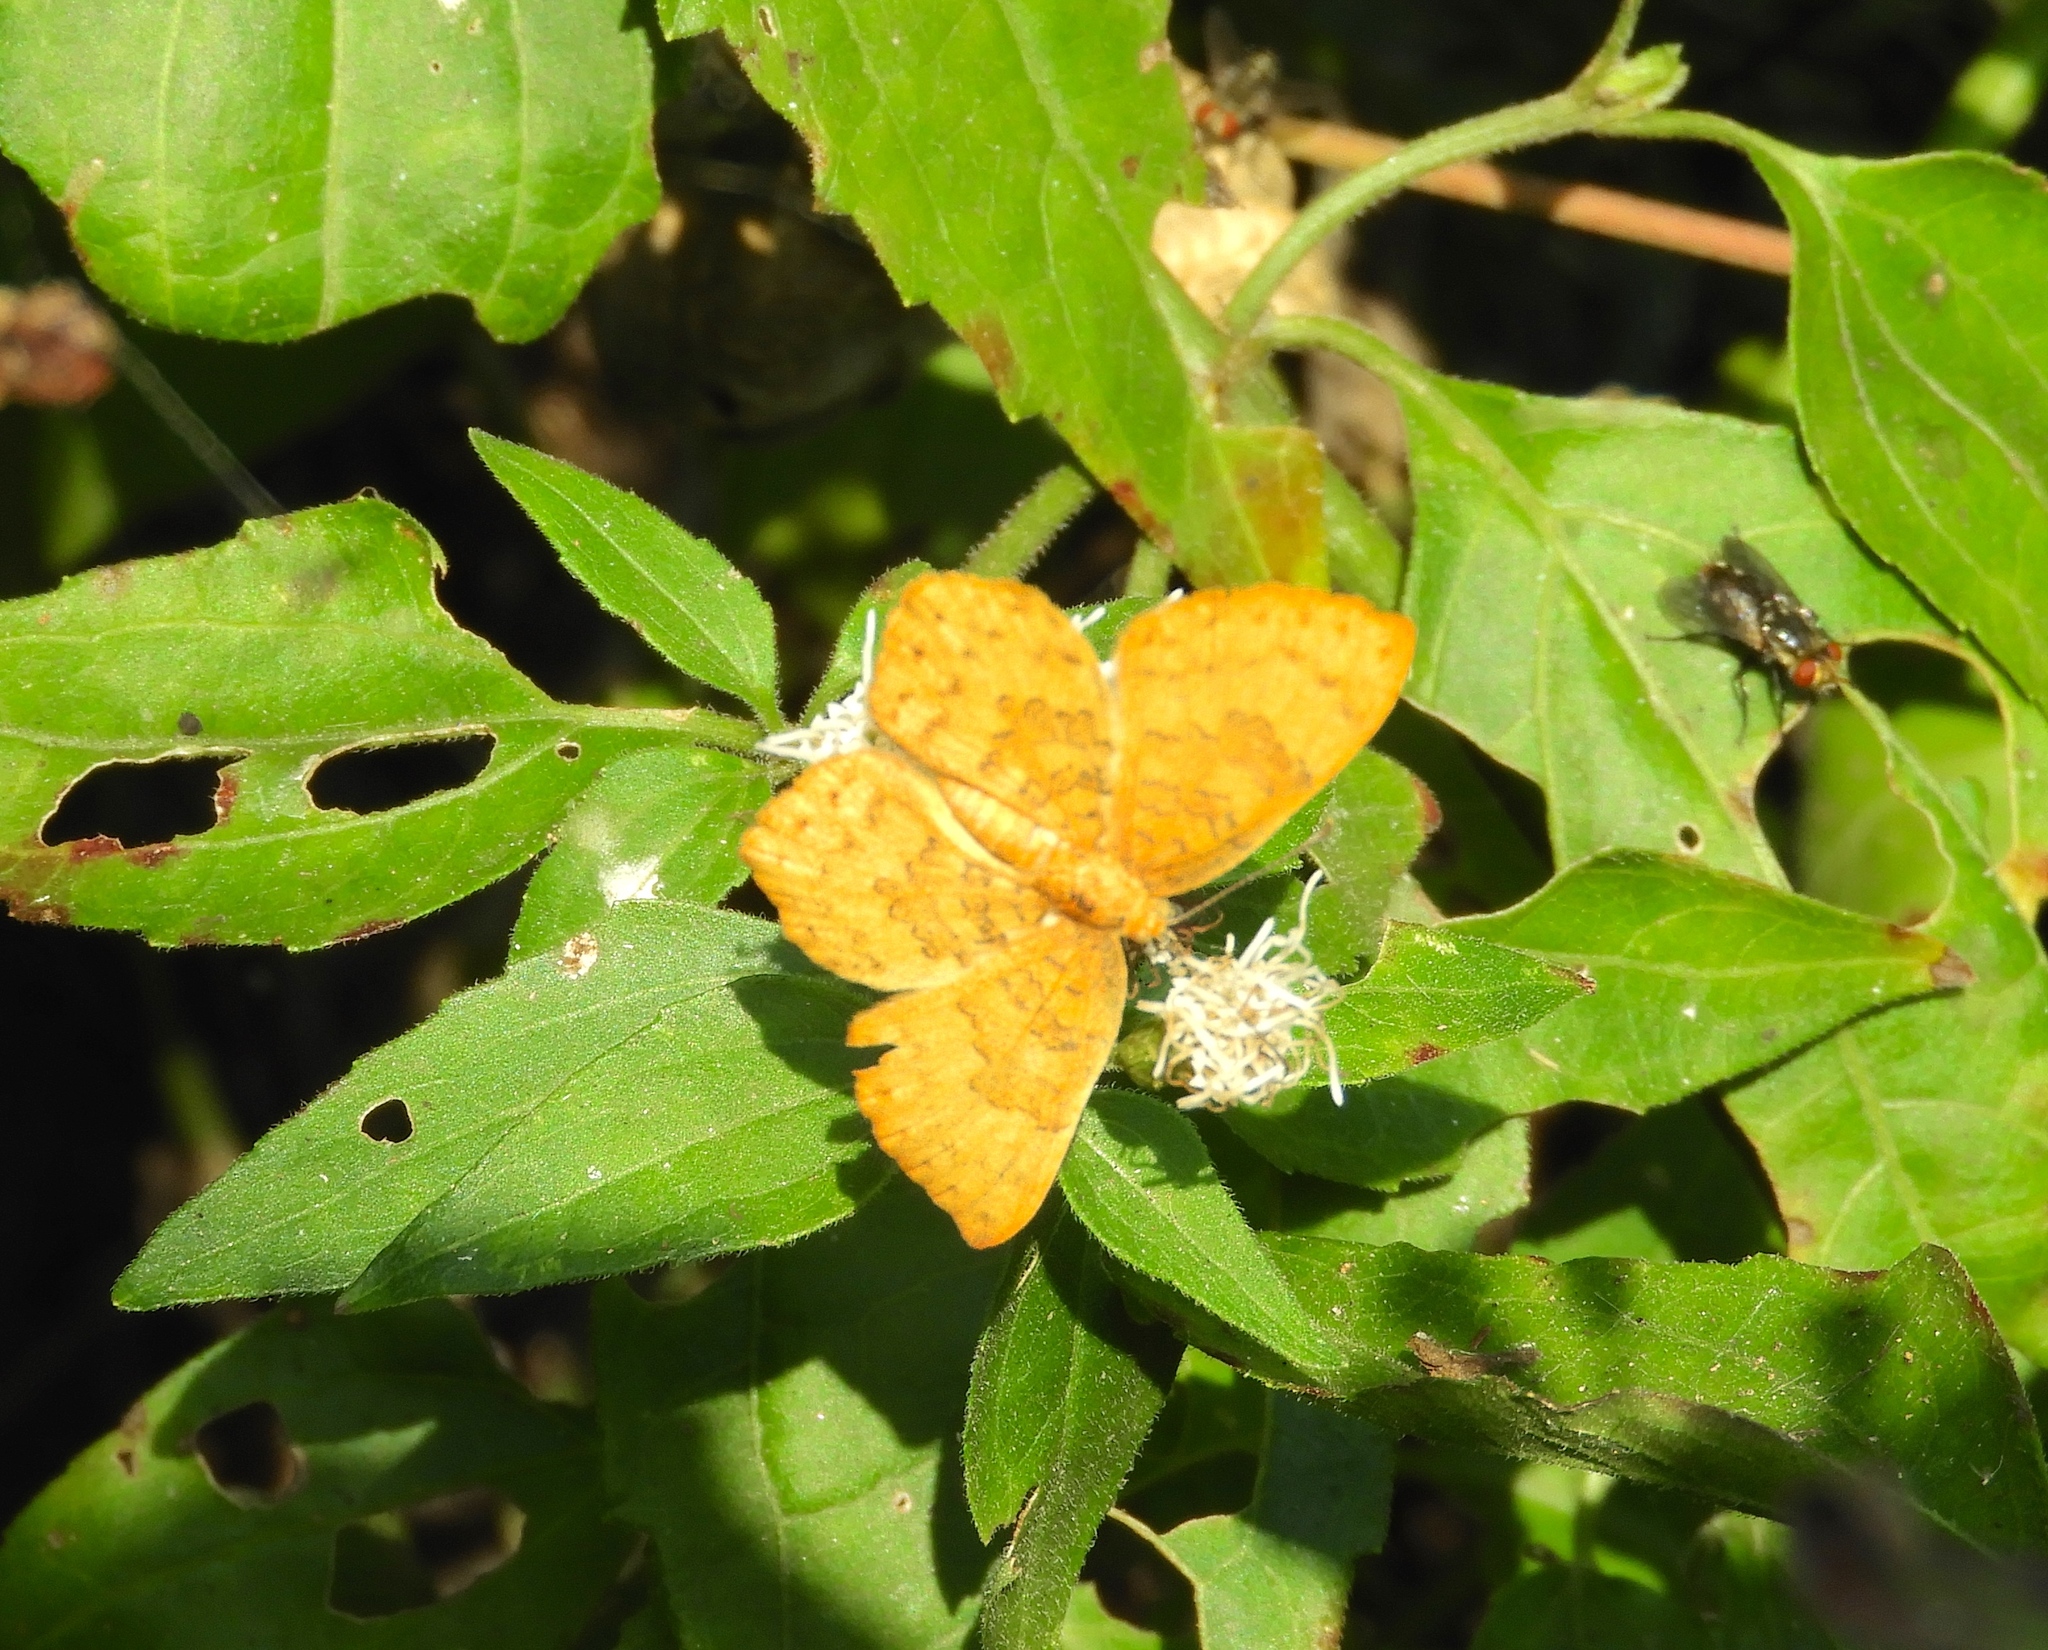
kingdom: Animalia
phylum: Arthropoda
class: Insecta
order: Lepidoptera
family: Lycaenidae
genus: Emesis
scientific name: Emesis
